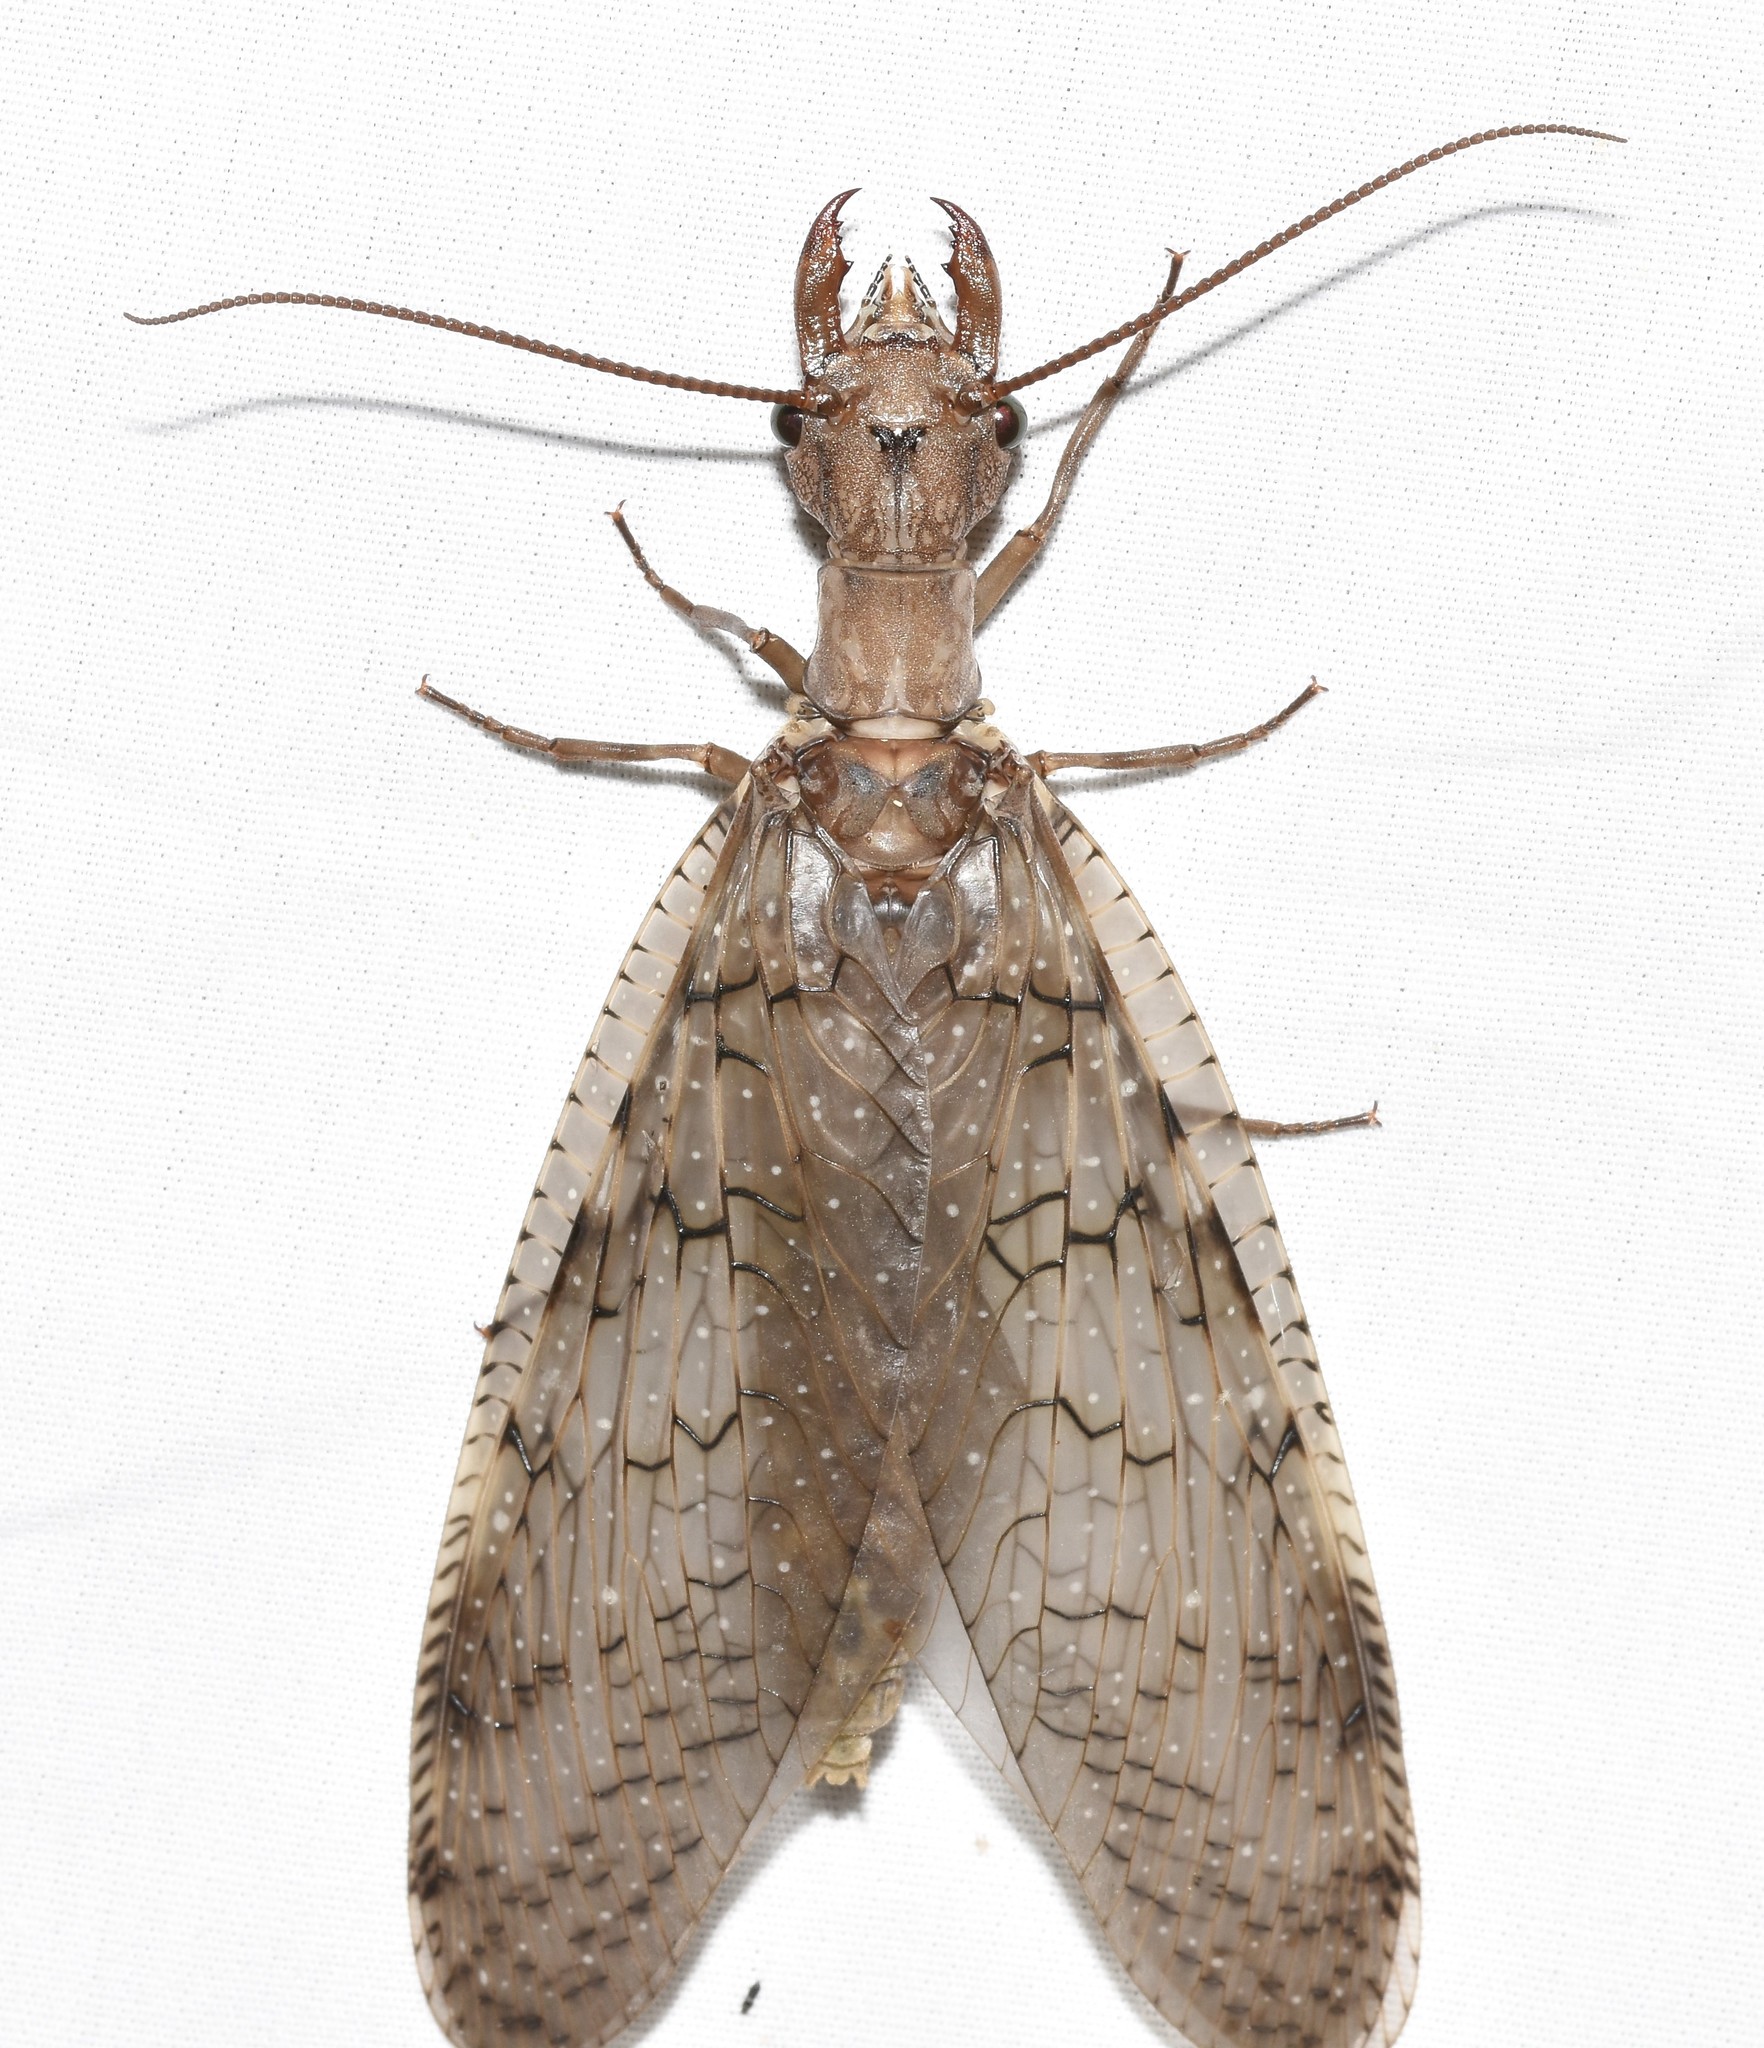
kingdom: Animalia
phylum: Arthropoda
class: Insecta
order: Megaloptera
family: Corydalidae
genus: Corydalus
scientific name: Corydalus cornutus
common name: Dobsonfly
